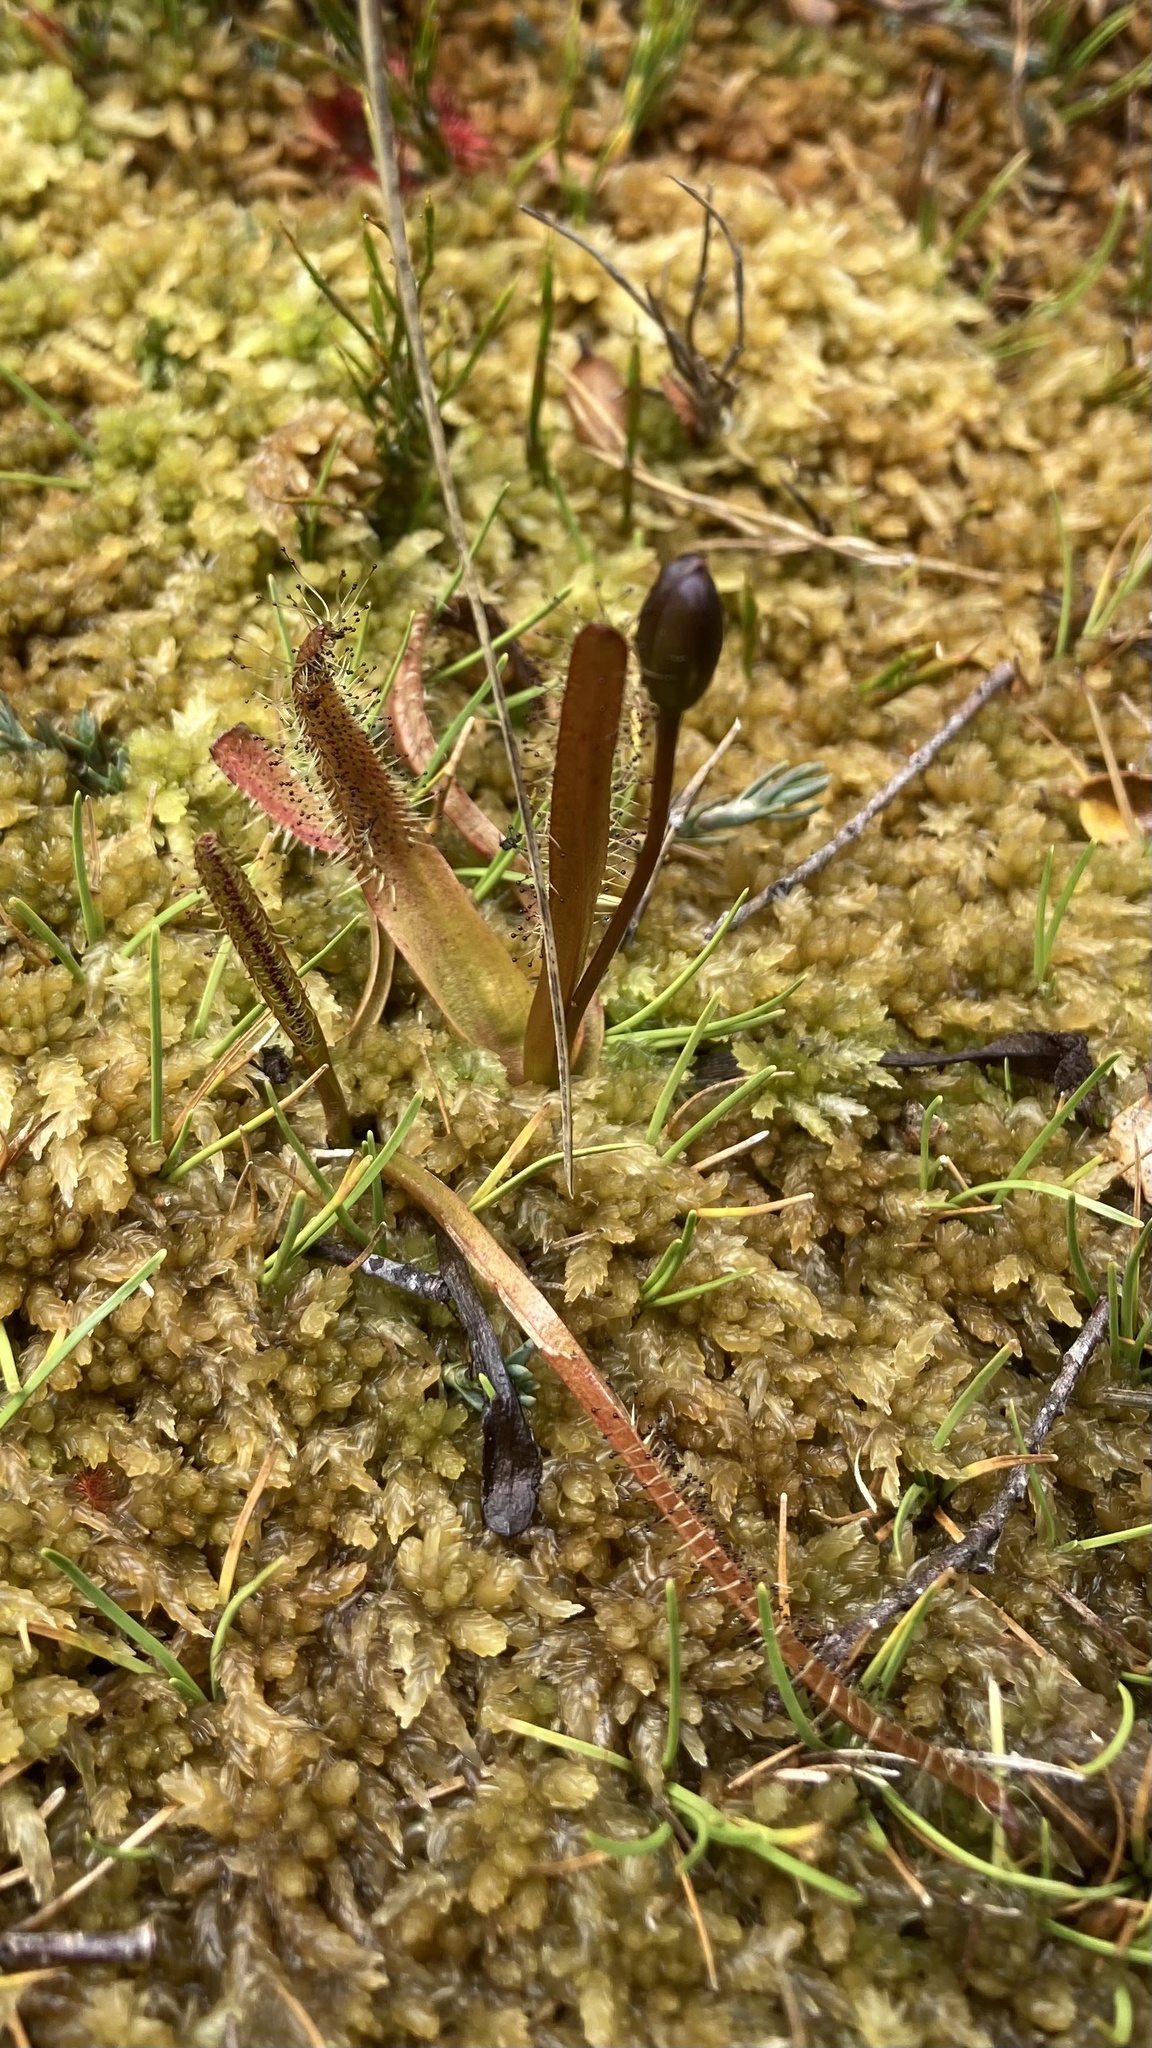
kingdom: Plantae
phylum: Tracheophyta
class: Magnoliopsida
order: Caryophyllales
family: Droseraceae
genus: Drosera
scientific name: Drosera arcturi
